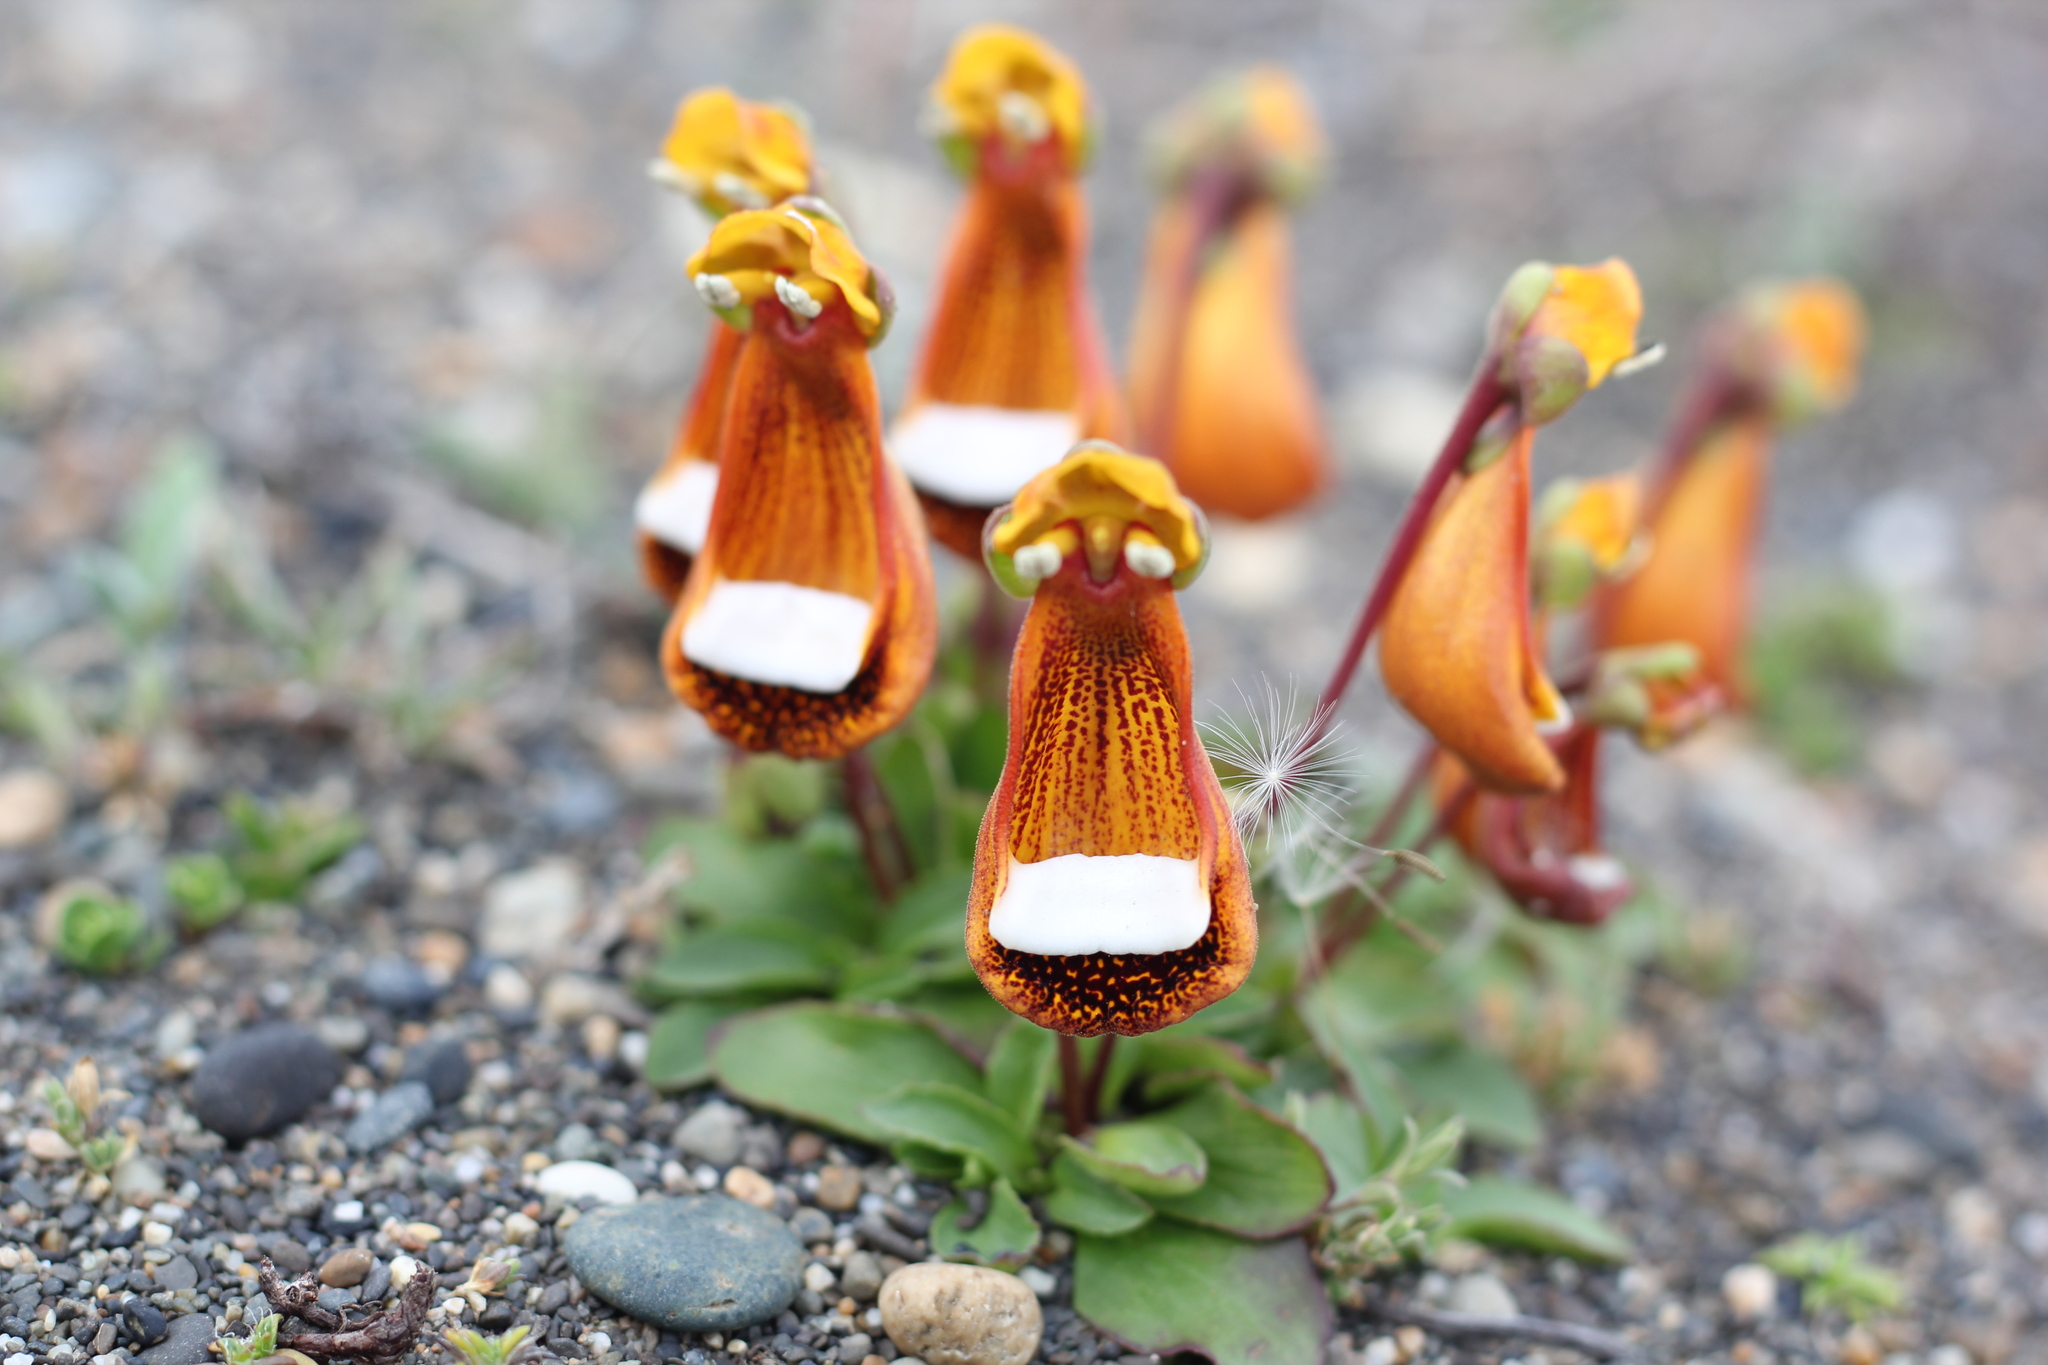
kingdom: Plantae
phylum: Tracheophyta
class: Magnoliopsida
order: Lamiales
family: Calceolariaceae
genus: Calceolaria
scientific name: Calceolaria uniflora
